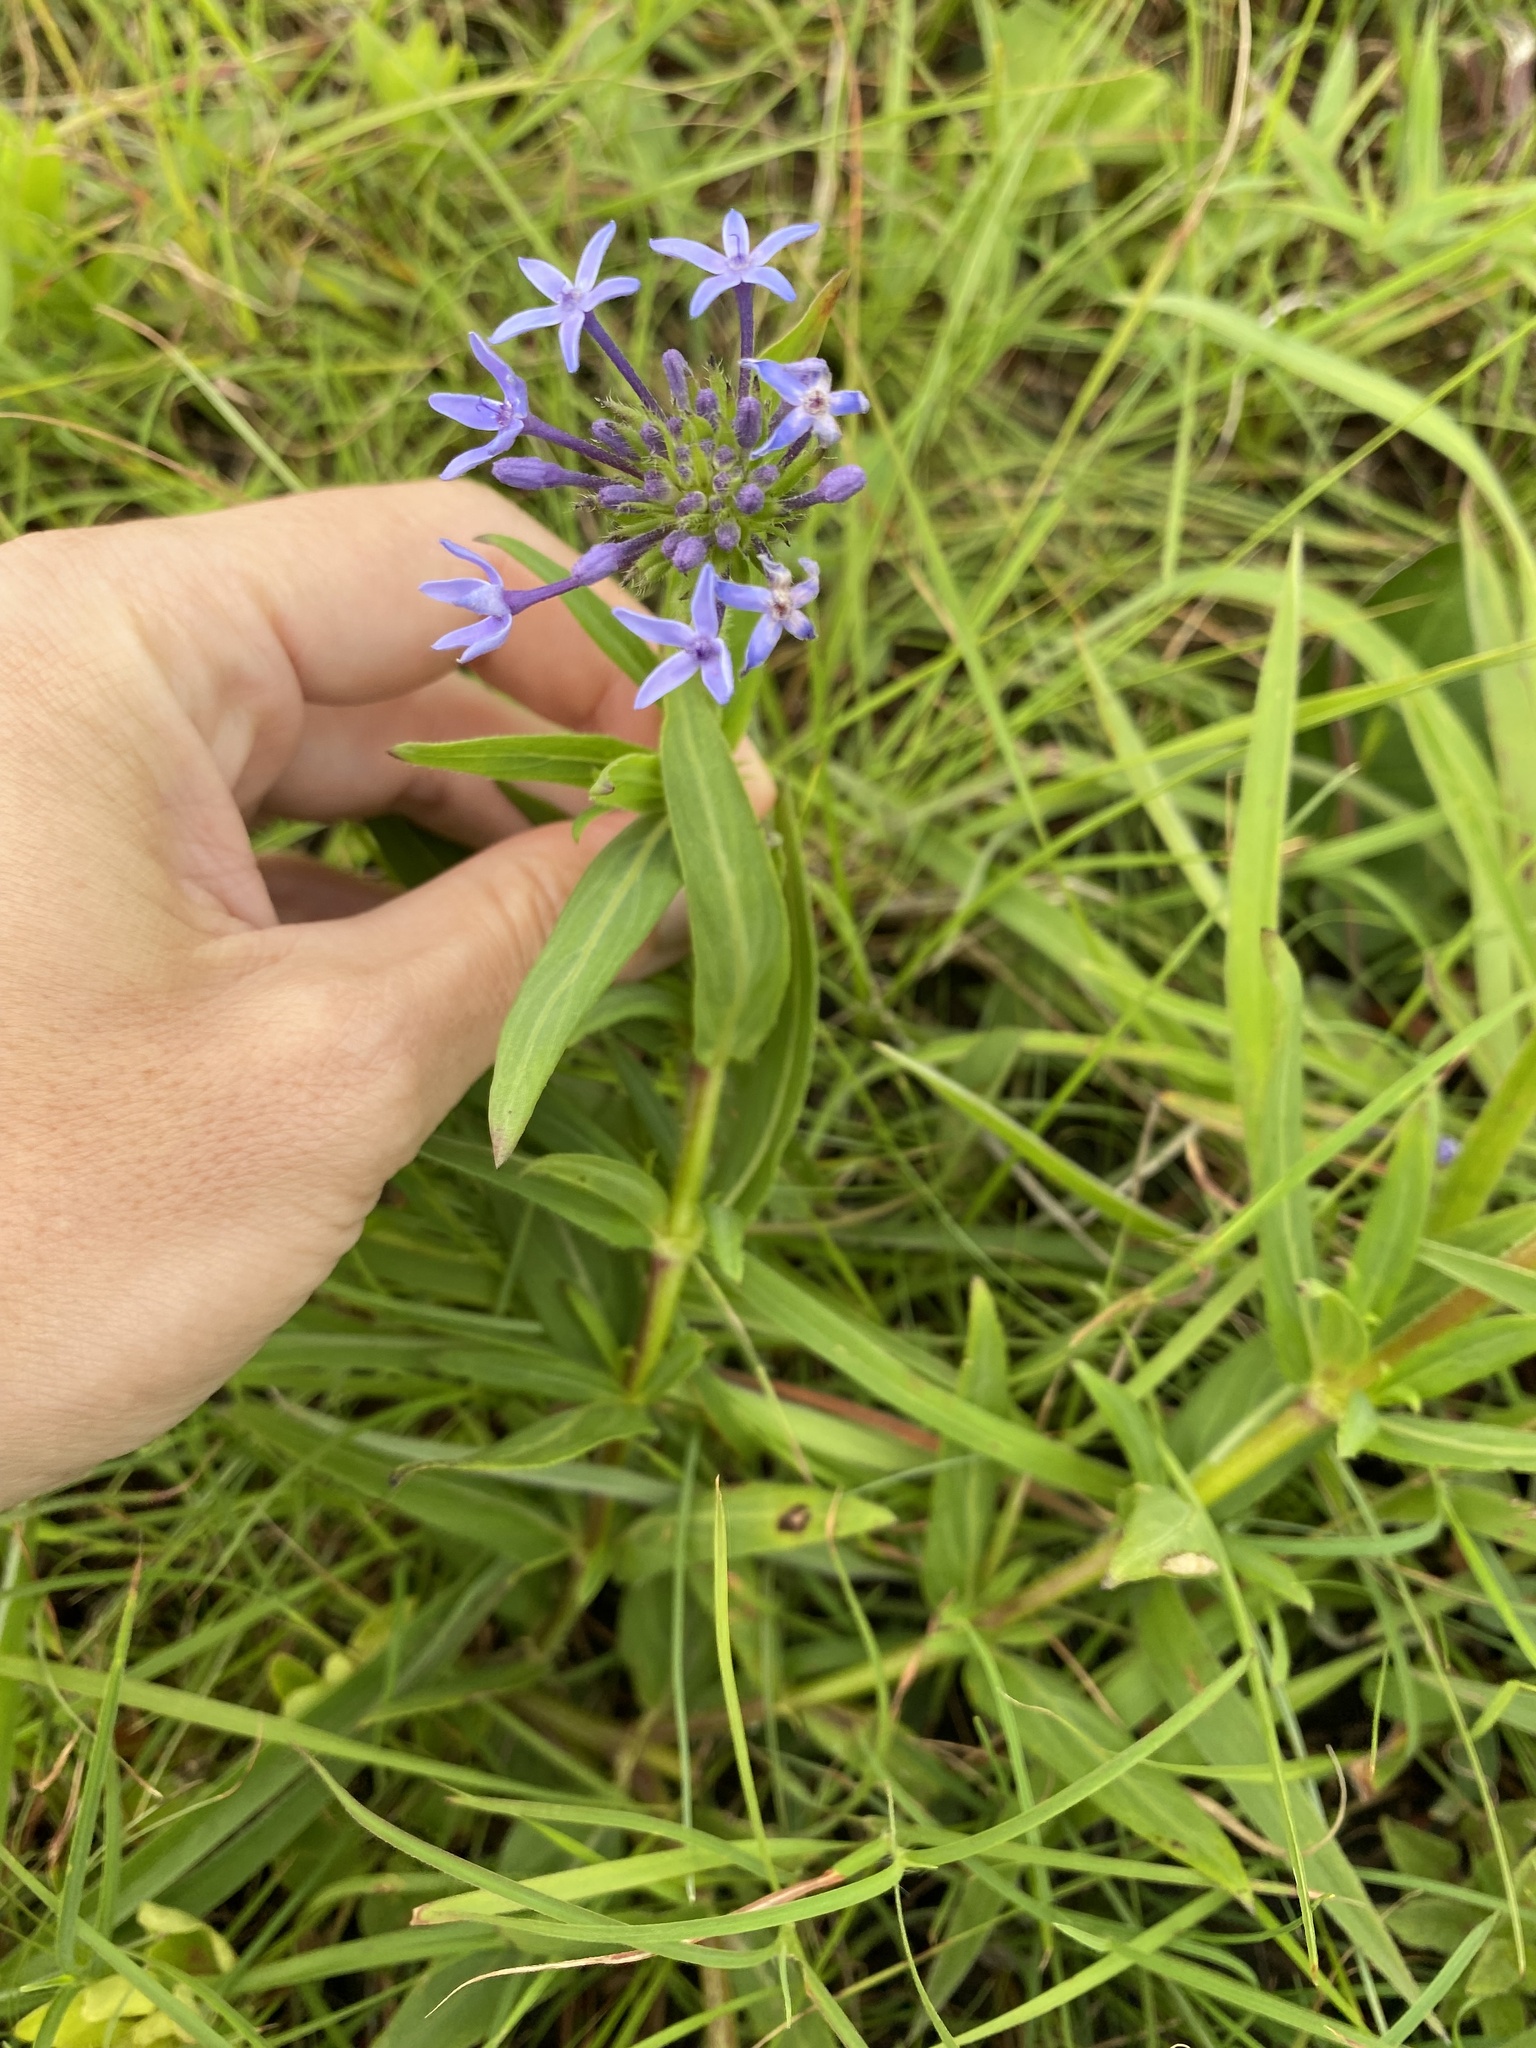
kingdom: Plantae
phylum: Tracheophyta
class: Magnoliopsida
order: Gentianales
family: Rubiaceae
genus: Pentanisia
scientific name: Pentanisia angustifolia
